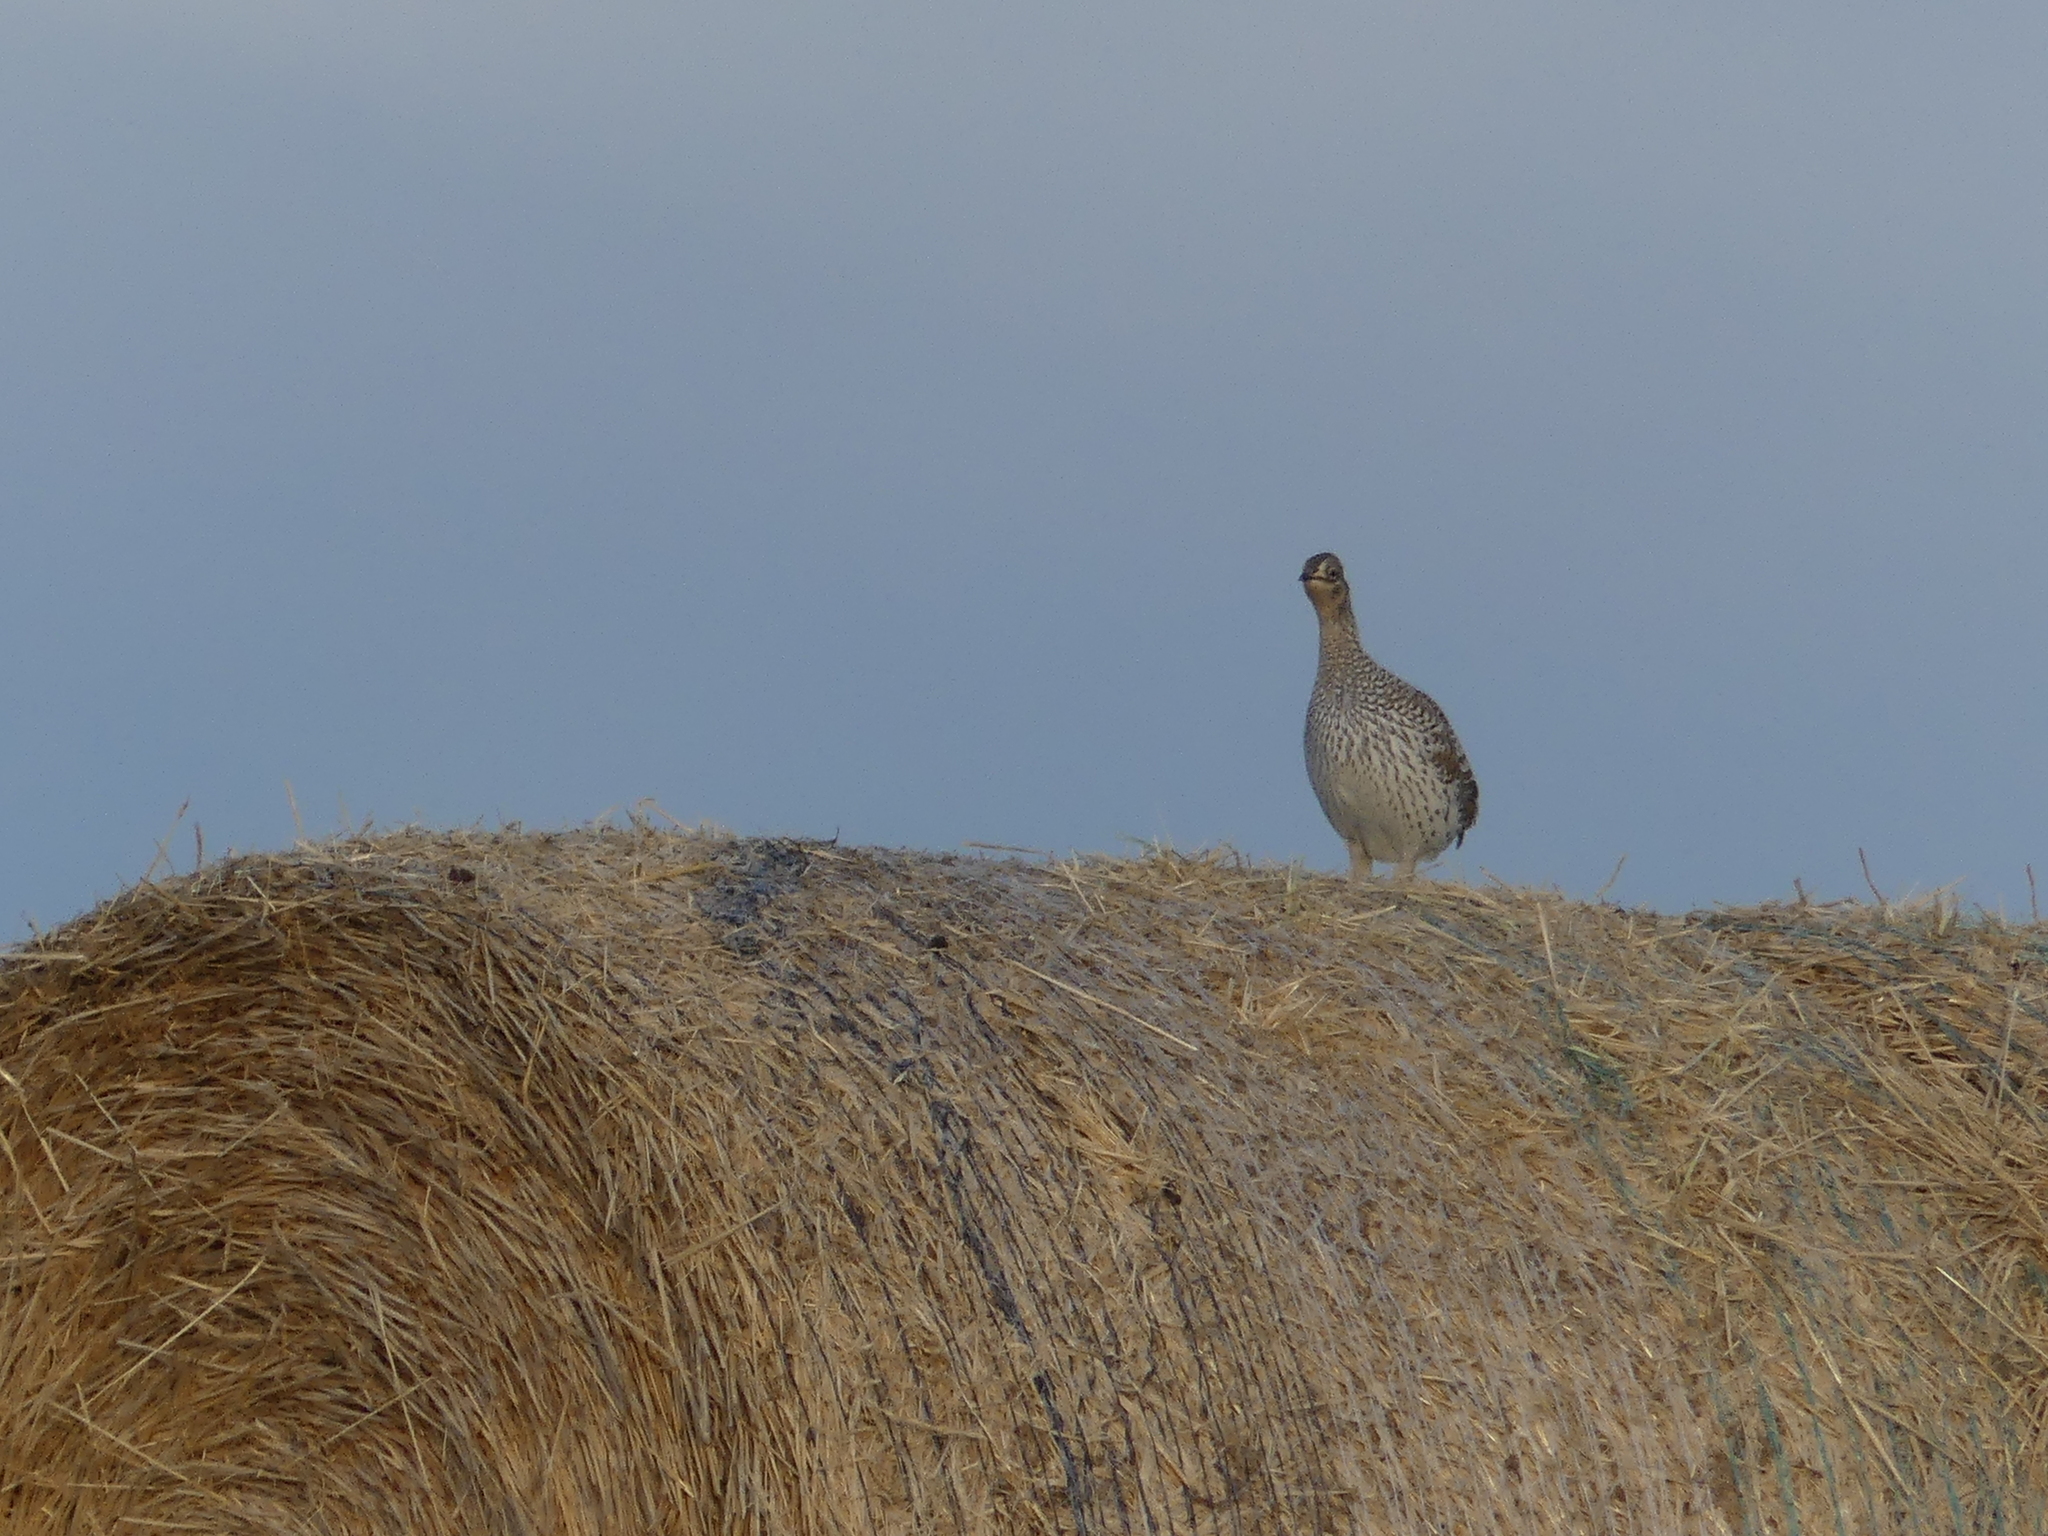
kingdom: Animalia
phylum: Chordata
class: Aves
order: Galliformes
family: Phasianidae
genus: Tympanuchus
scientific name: Tympanuchus phasianellus
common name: Sharp-tailed grouse
